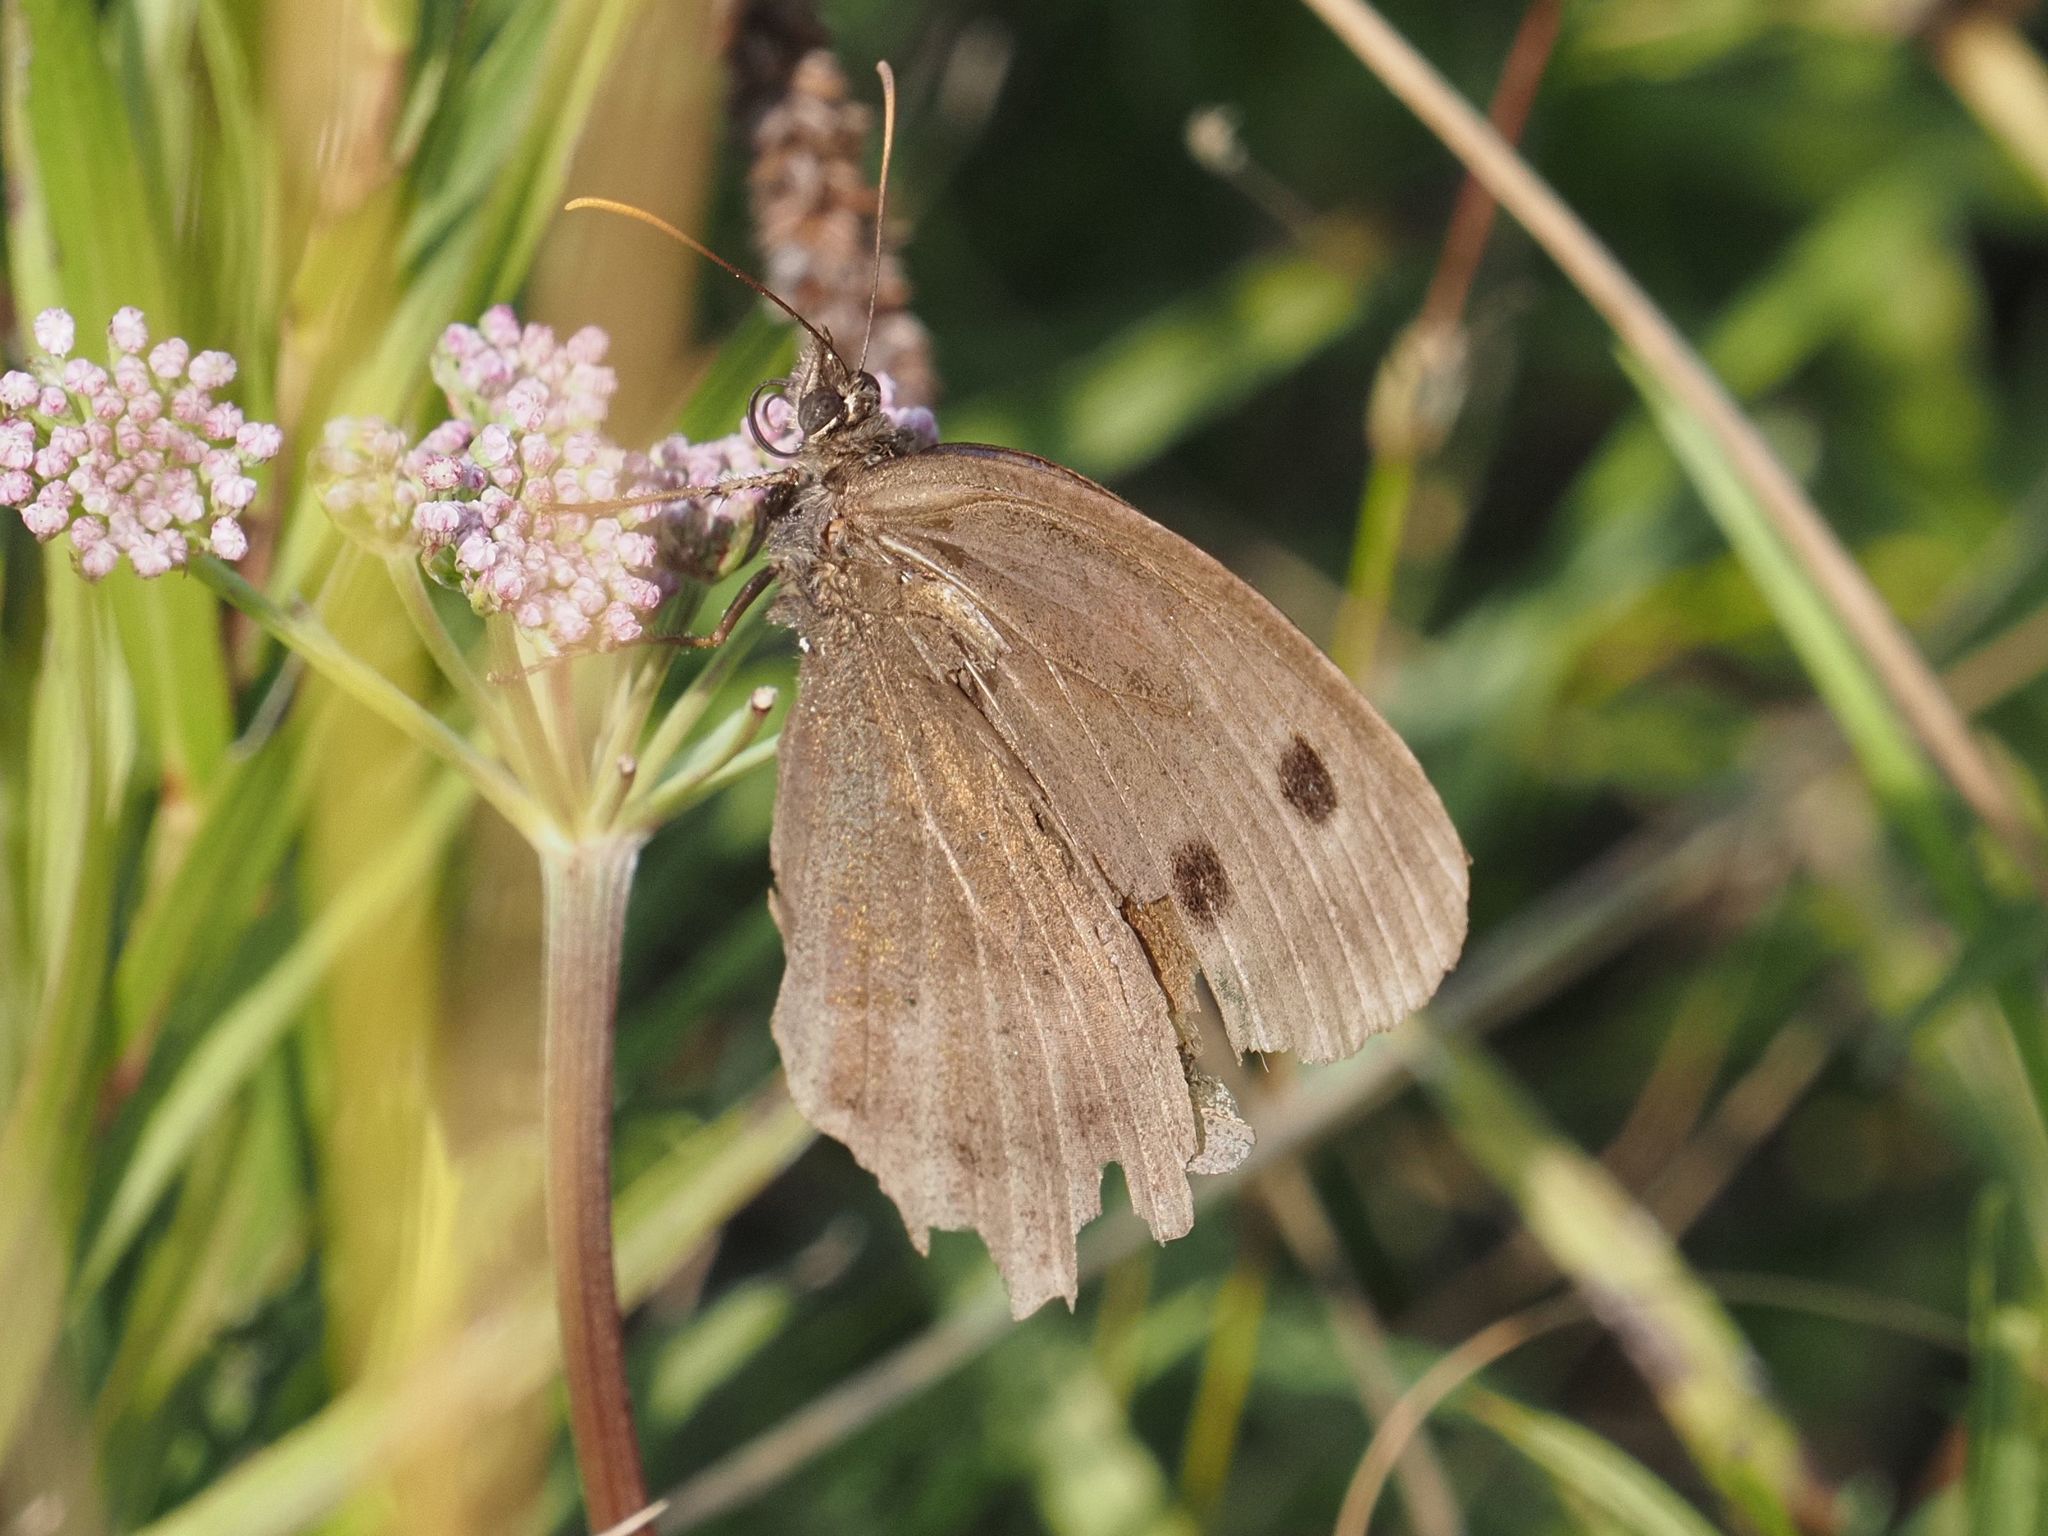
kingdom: Animalia
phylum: Arthropoda
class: Insecta
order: Lepidoptera
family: Nymphalidae
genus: Minois
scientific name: Minois dryas
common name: Dryad
